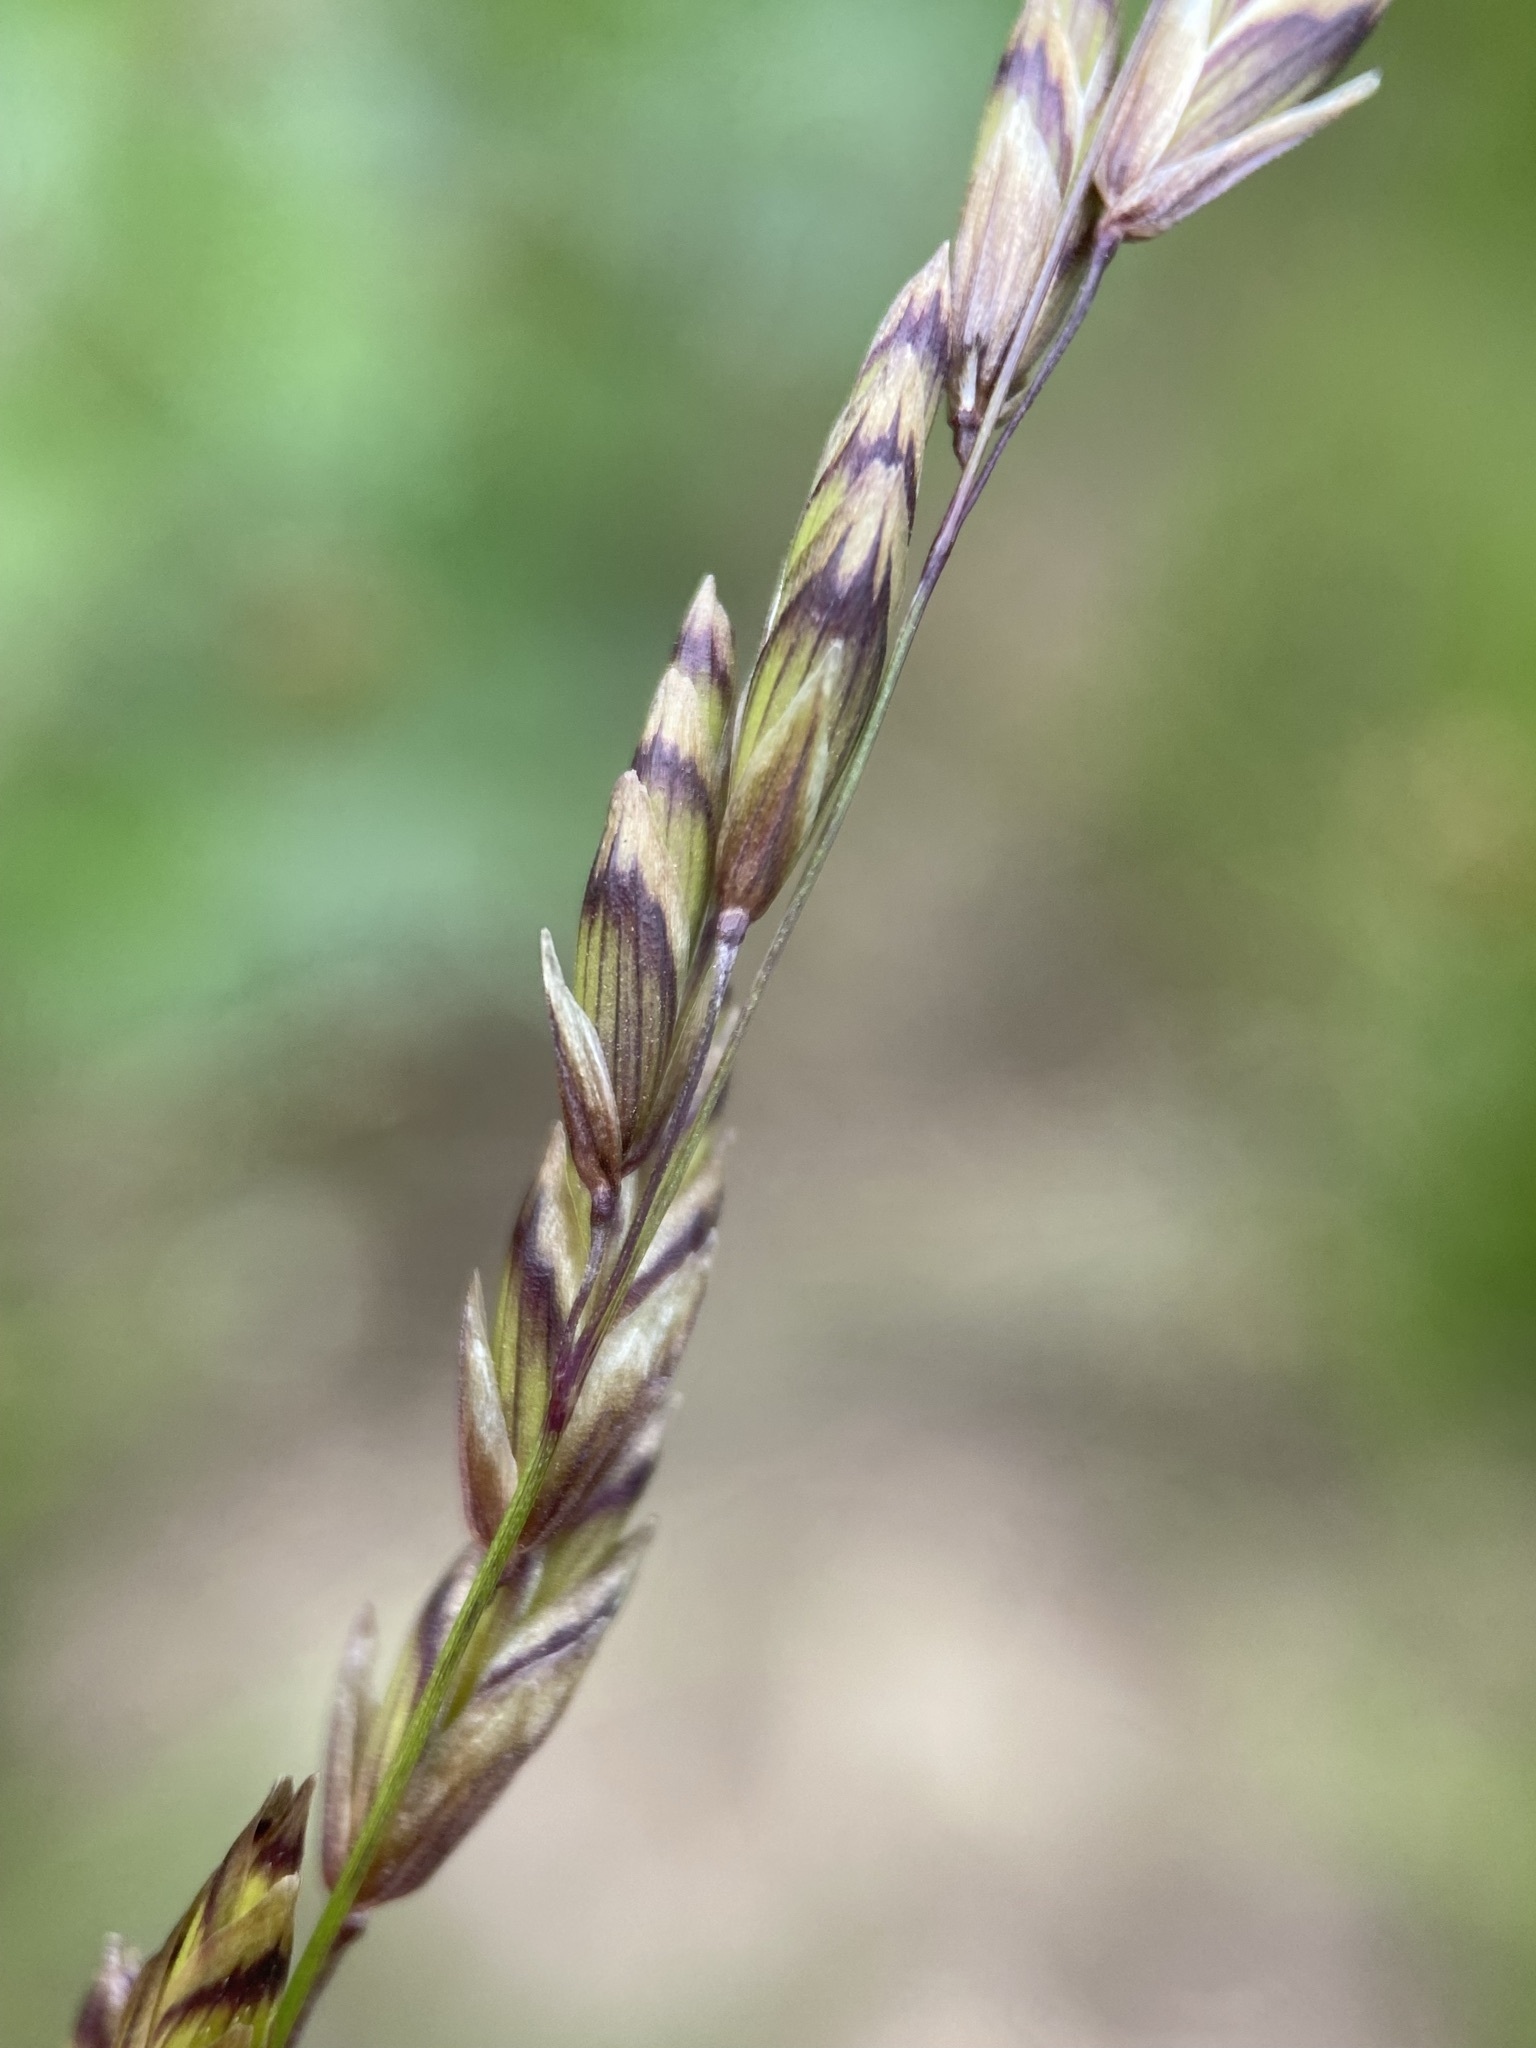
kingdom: Plantae
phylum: Tracheophyta
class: Liliopsida
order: Poales
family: Poaceae
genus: Melica
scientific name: Melica spectabilis
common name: Purple oniongrass
